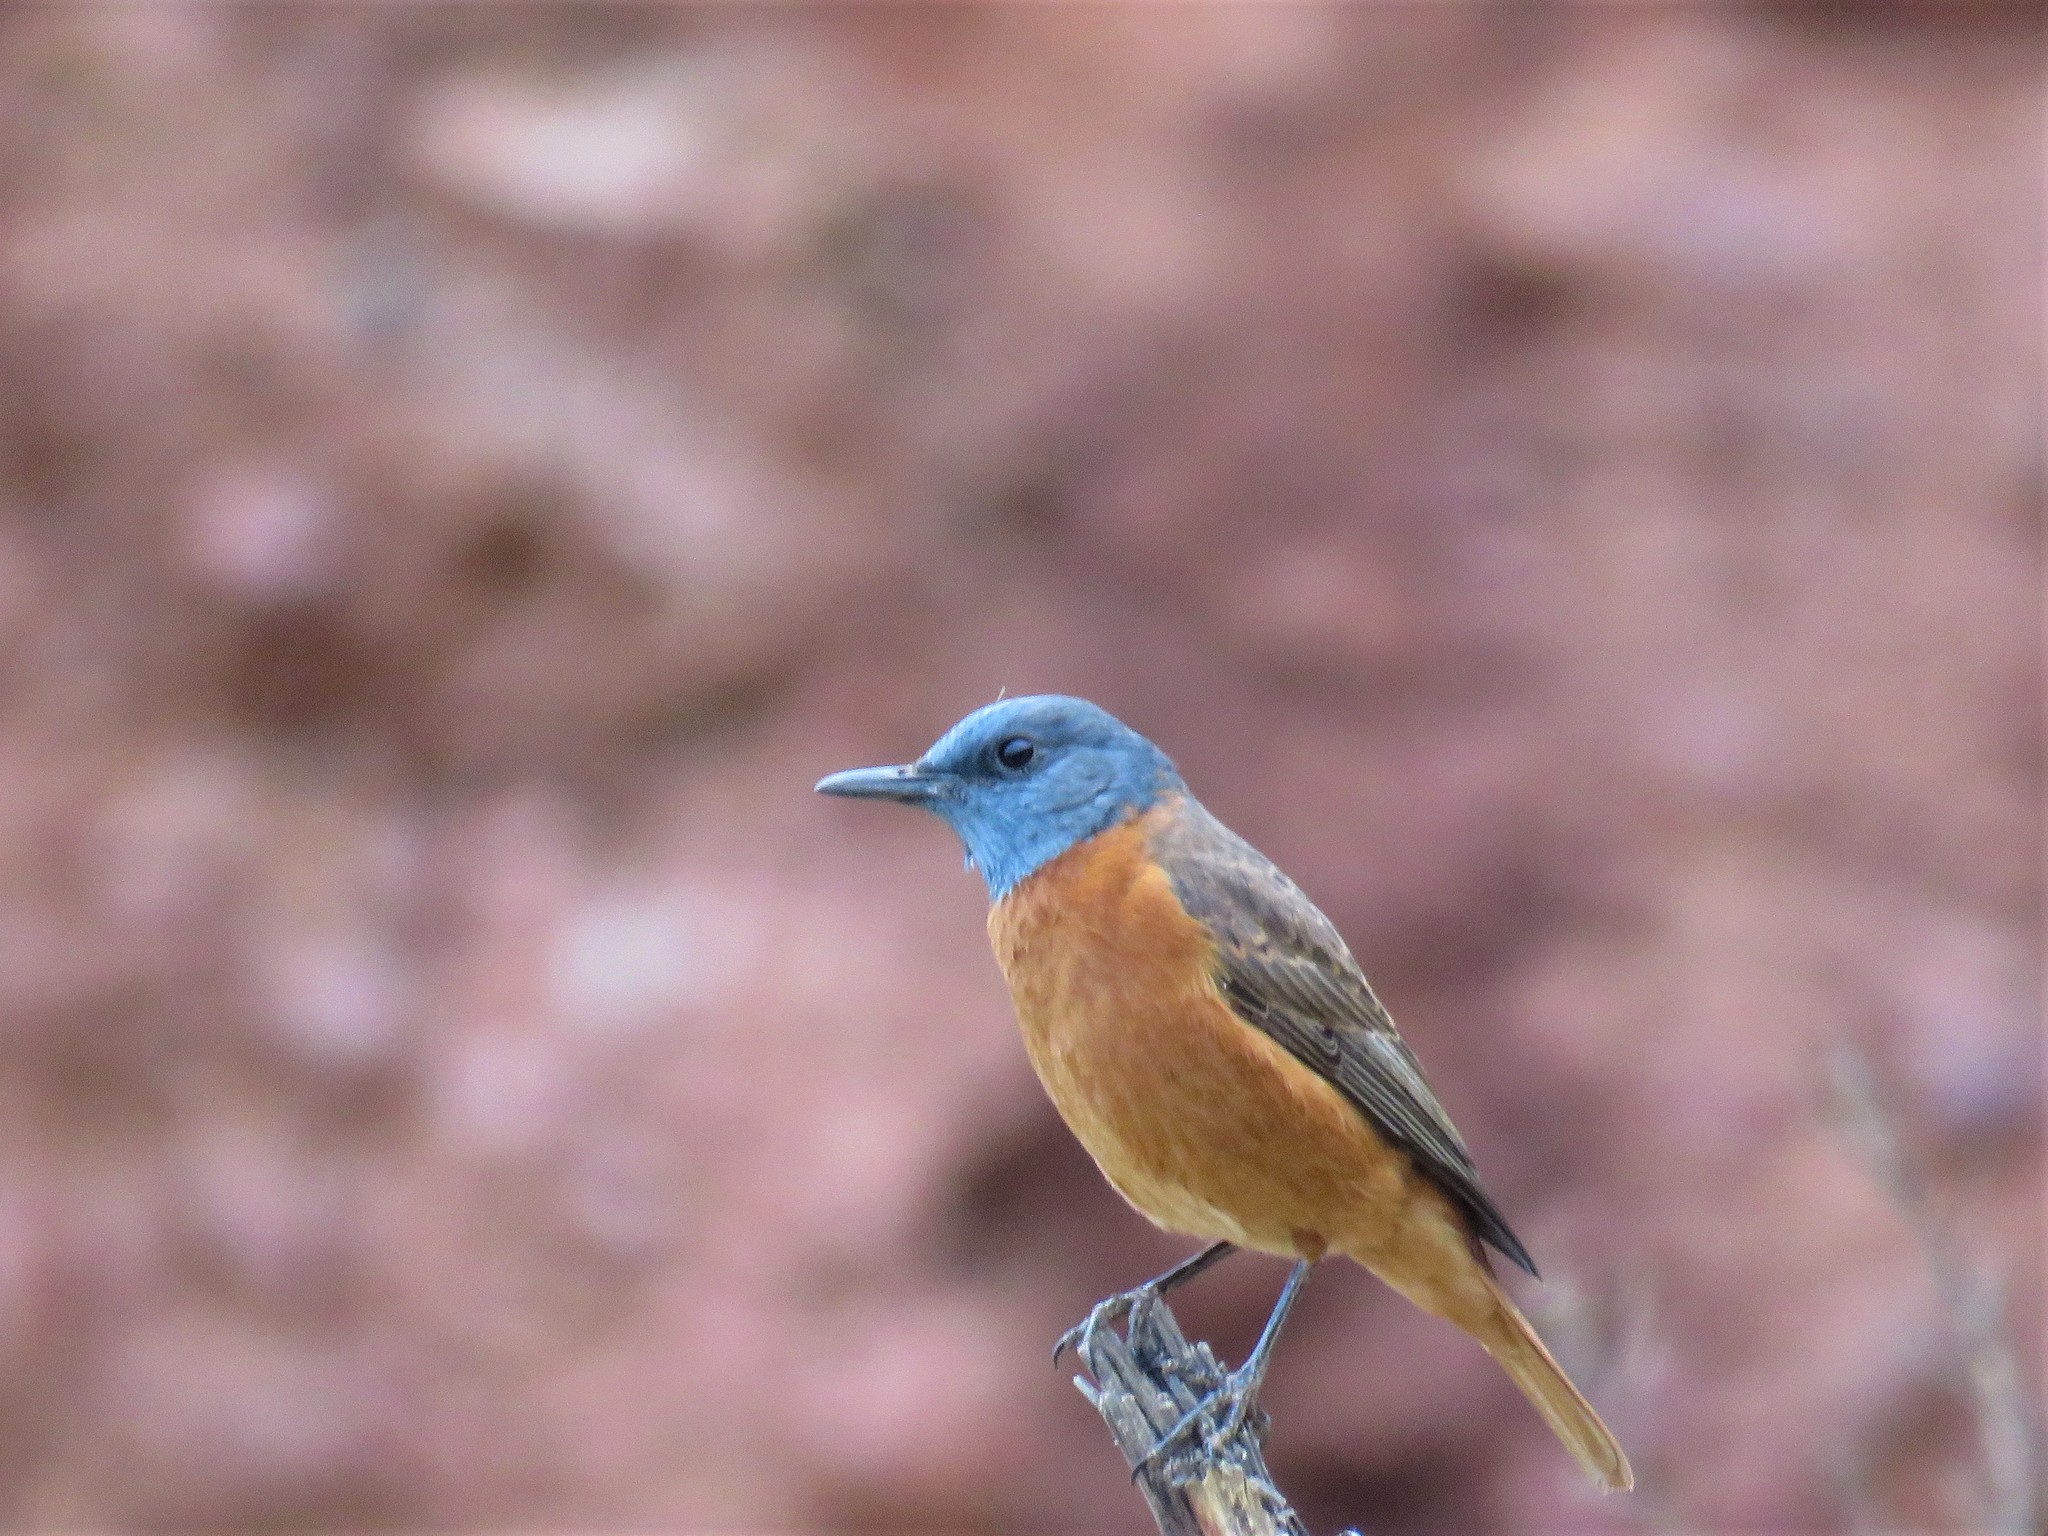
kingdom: Animalia
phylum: Chordata
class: Aves
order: Passeriformes
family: Muscicapidae
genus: Monticola
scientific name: Monticola rupestris
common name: Cape rock thrush
